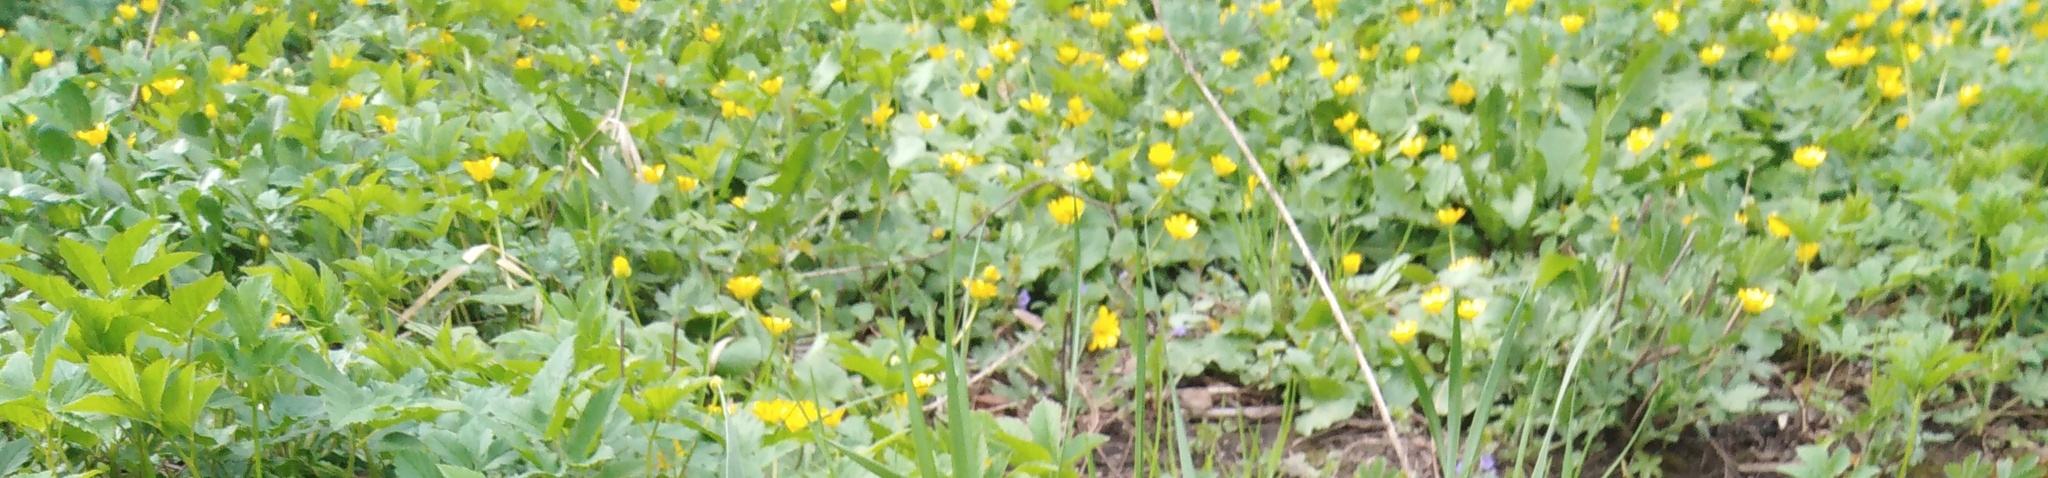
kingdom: Plantae
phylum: Tracheophyta
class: Magnoliopsida
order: Ranunculales
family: Ranunculaceae
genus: Ficaria
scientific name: Ficaria verna
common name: Lesser celandine
